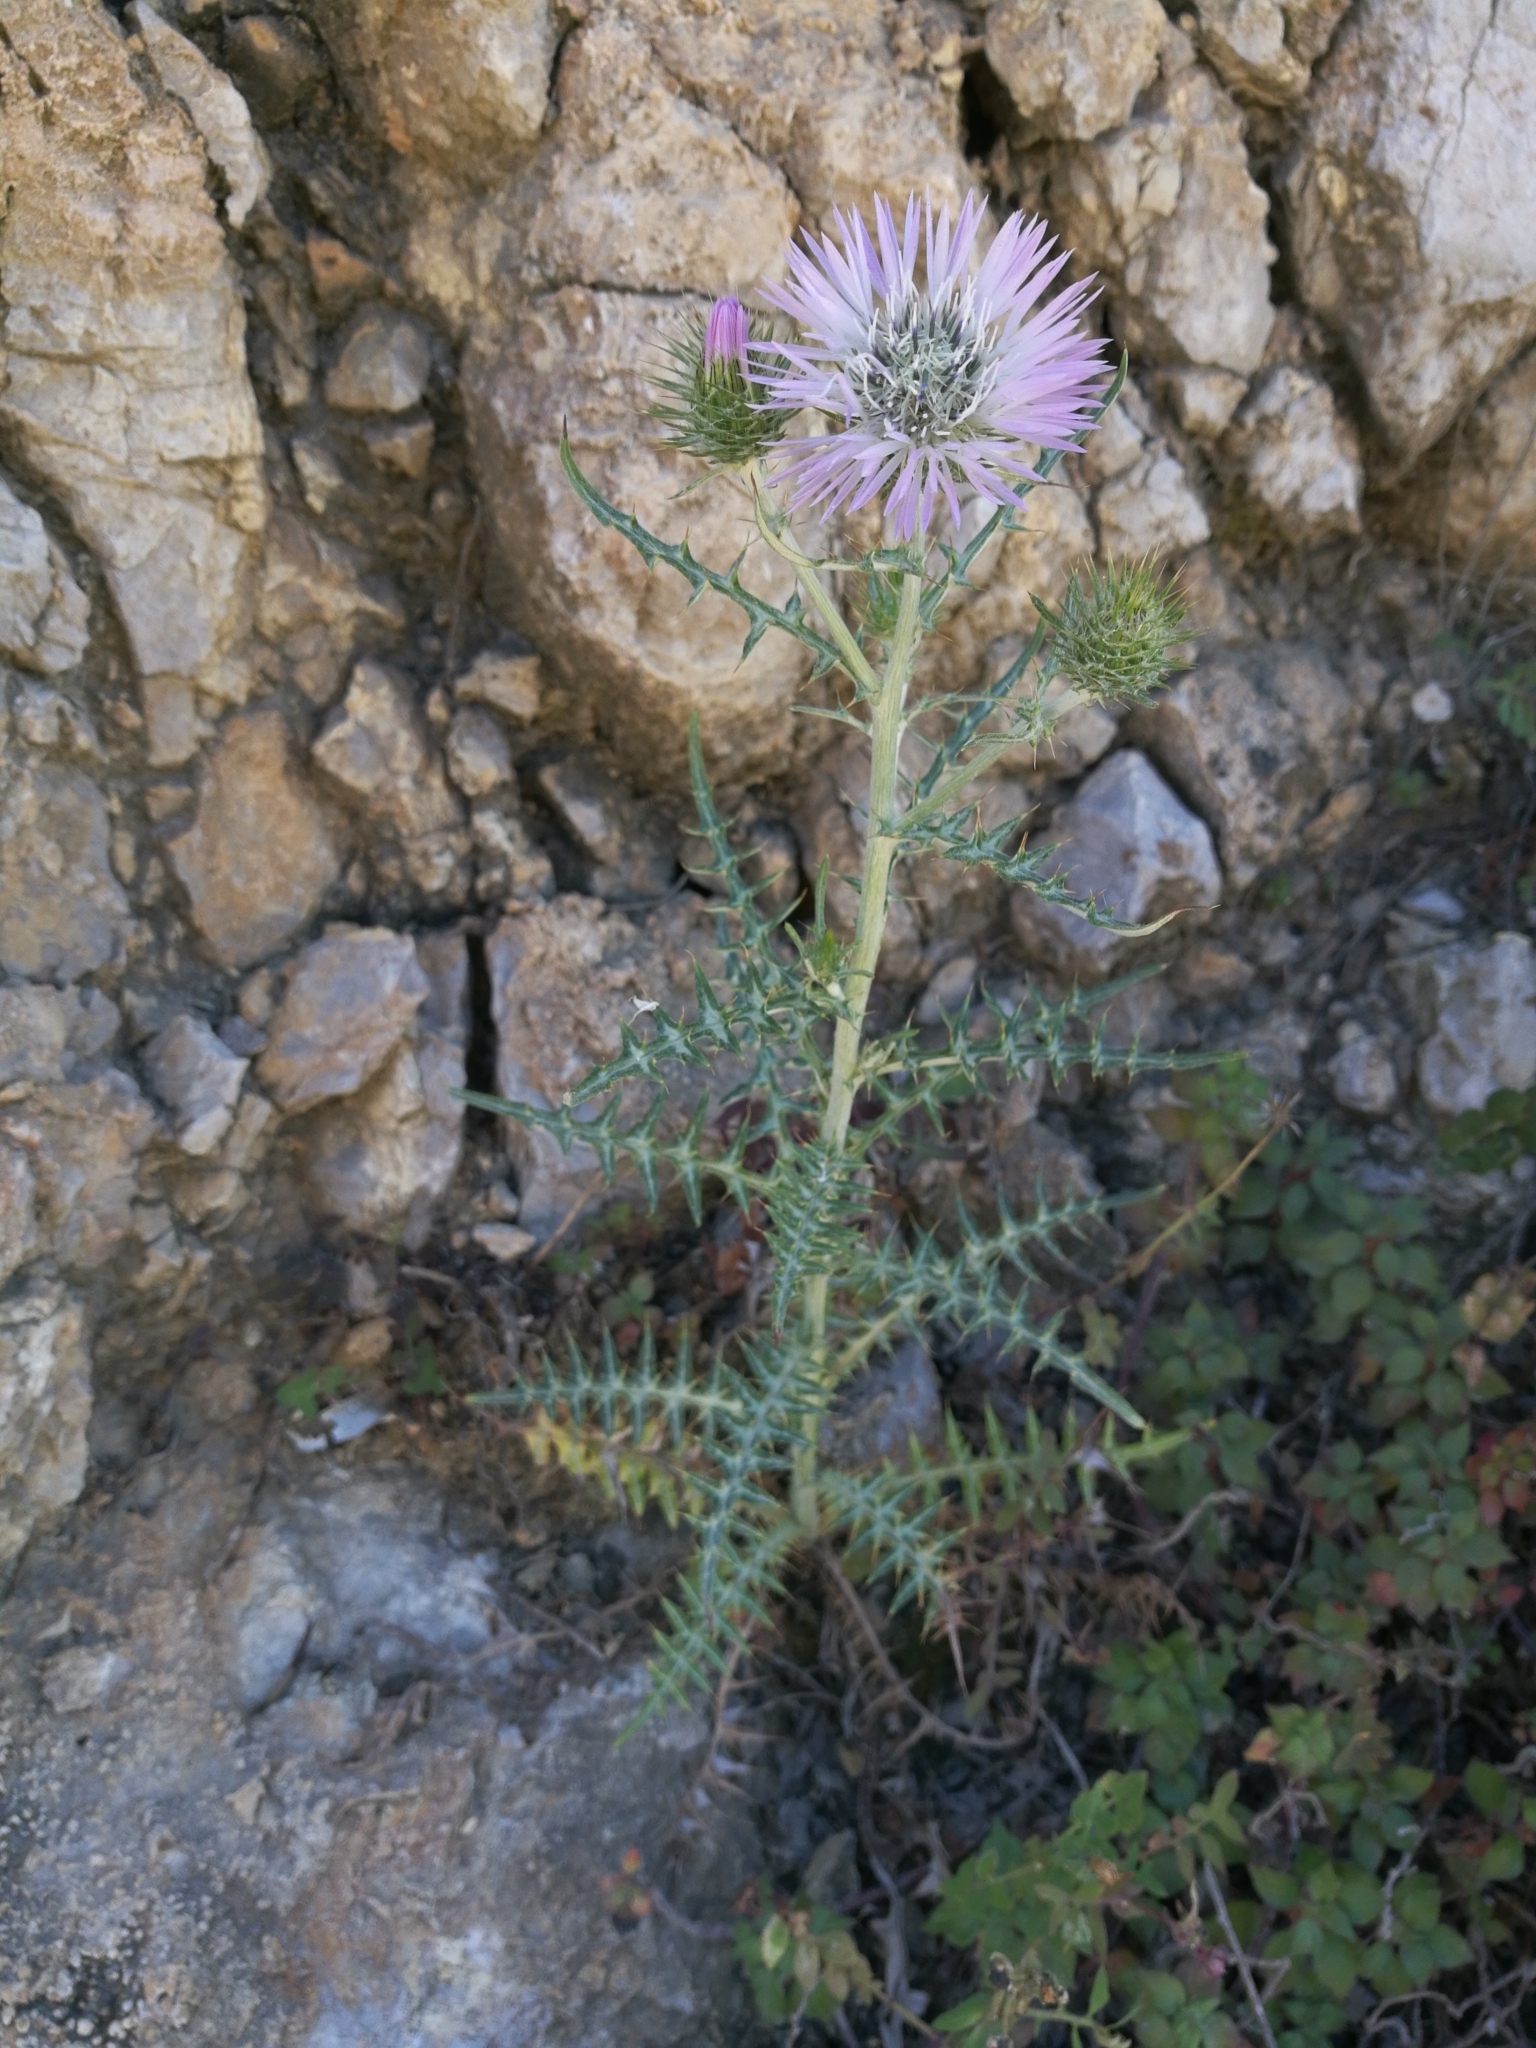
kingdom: Plantae
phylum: Tracheophyta
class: Magnoliopsida
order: Asterales
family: Asteraceae
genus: Galactites
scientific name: Galactites tomentosa
